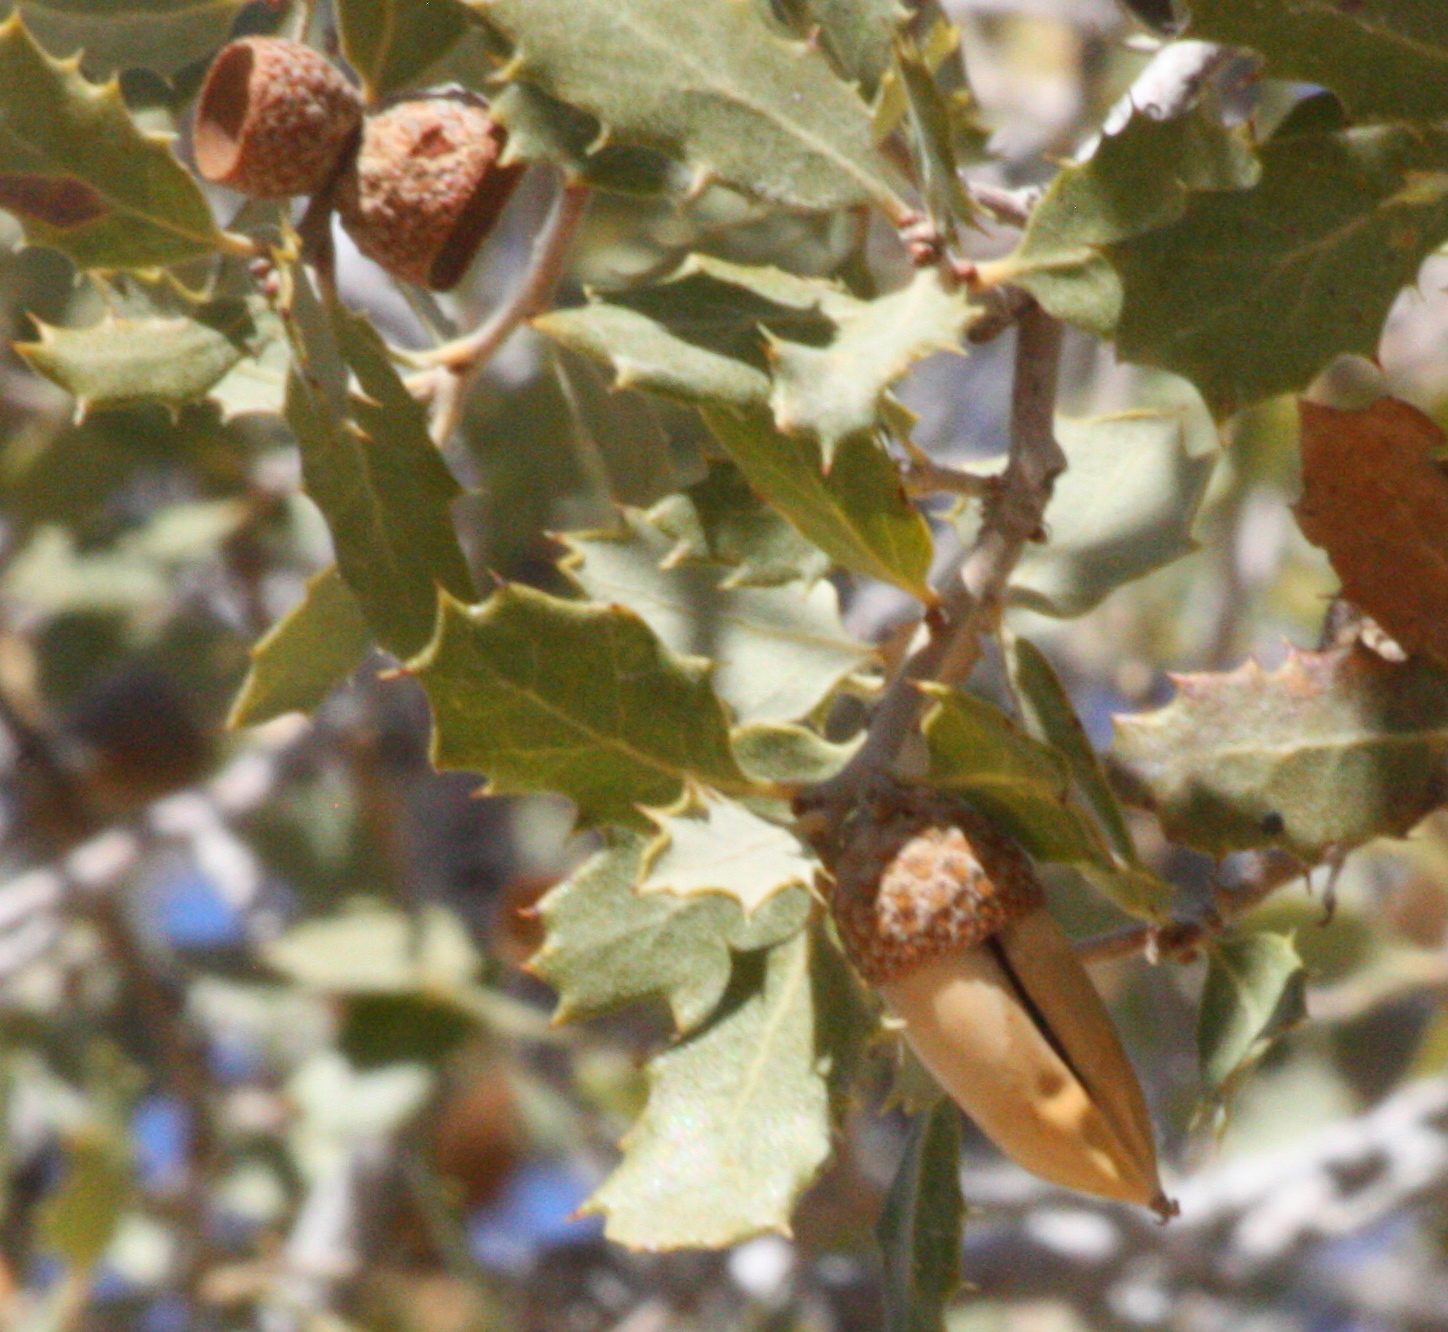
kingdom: Plantae
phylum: Tracheophyta
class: Magnoliopsida
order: Fagales
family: Fagaceae
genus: Quercus
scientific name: Quercus cornelius-mulleri
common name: Muller oak
